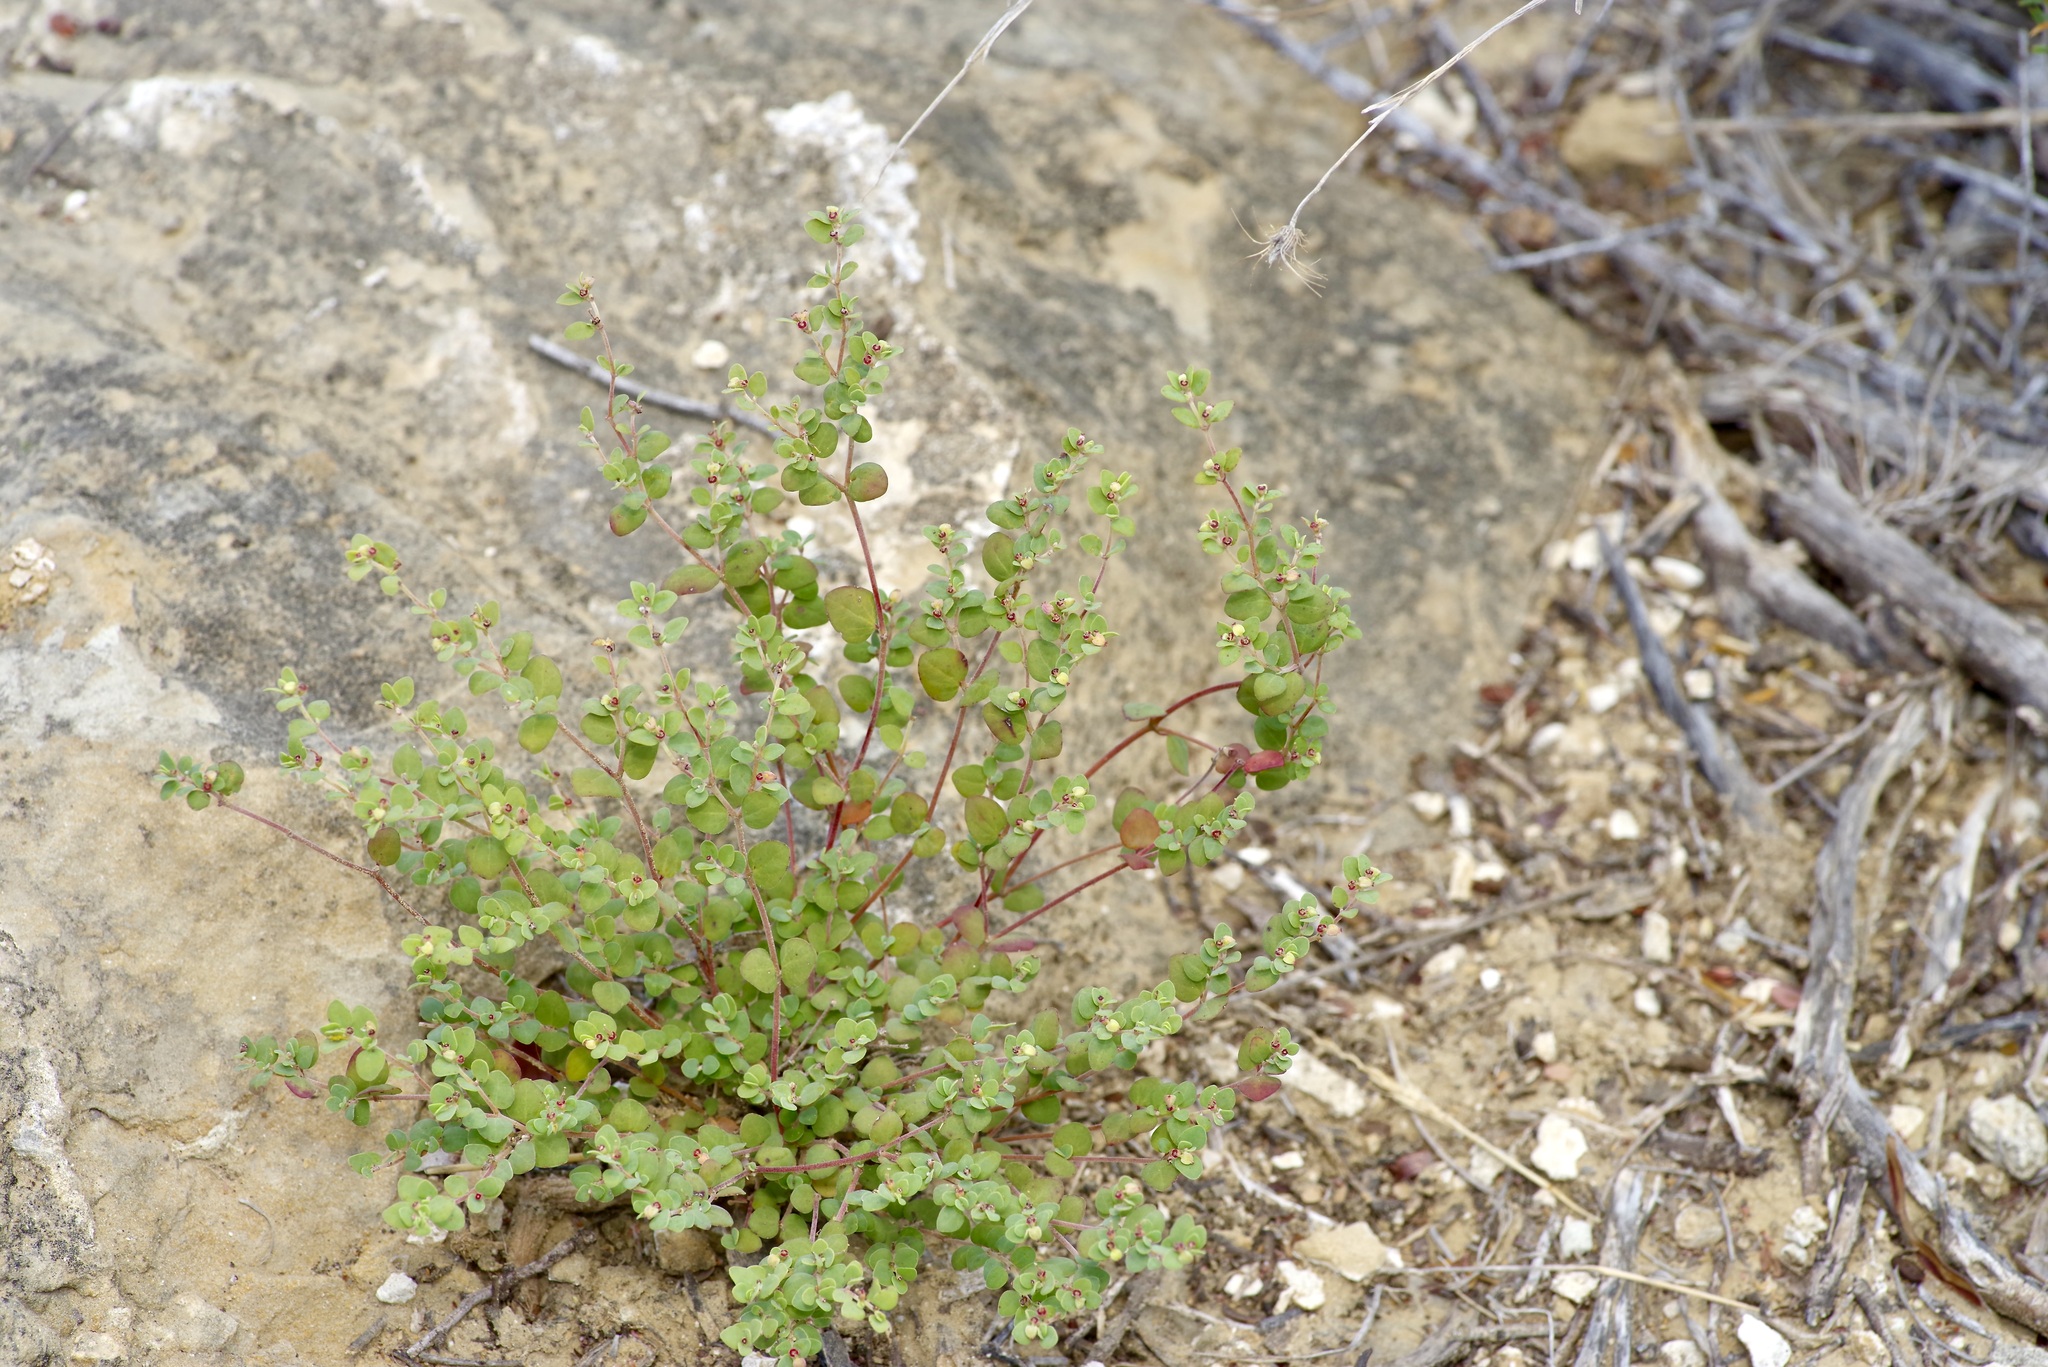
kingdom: Plantae
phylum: Tracheophyta
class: Magnoliopsida
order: Malpighiales
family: Euphorbiaceae
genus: Euphorbia
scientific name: Euphorbia cinerascens
